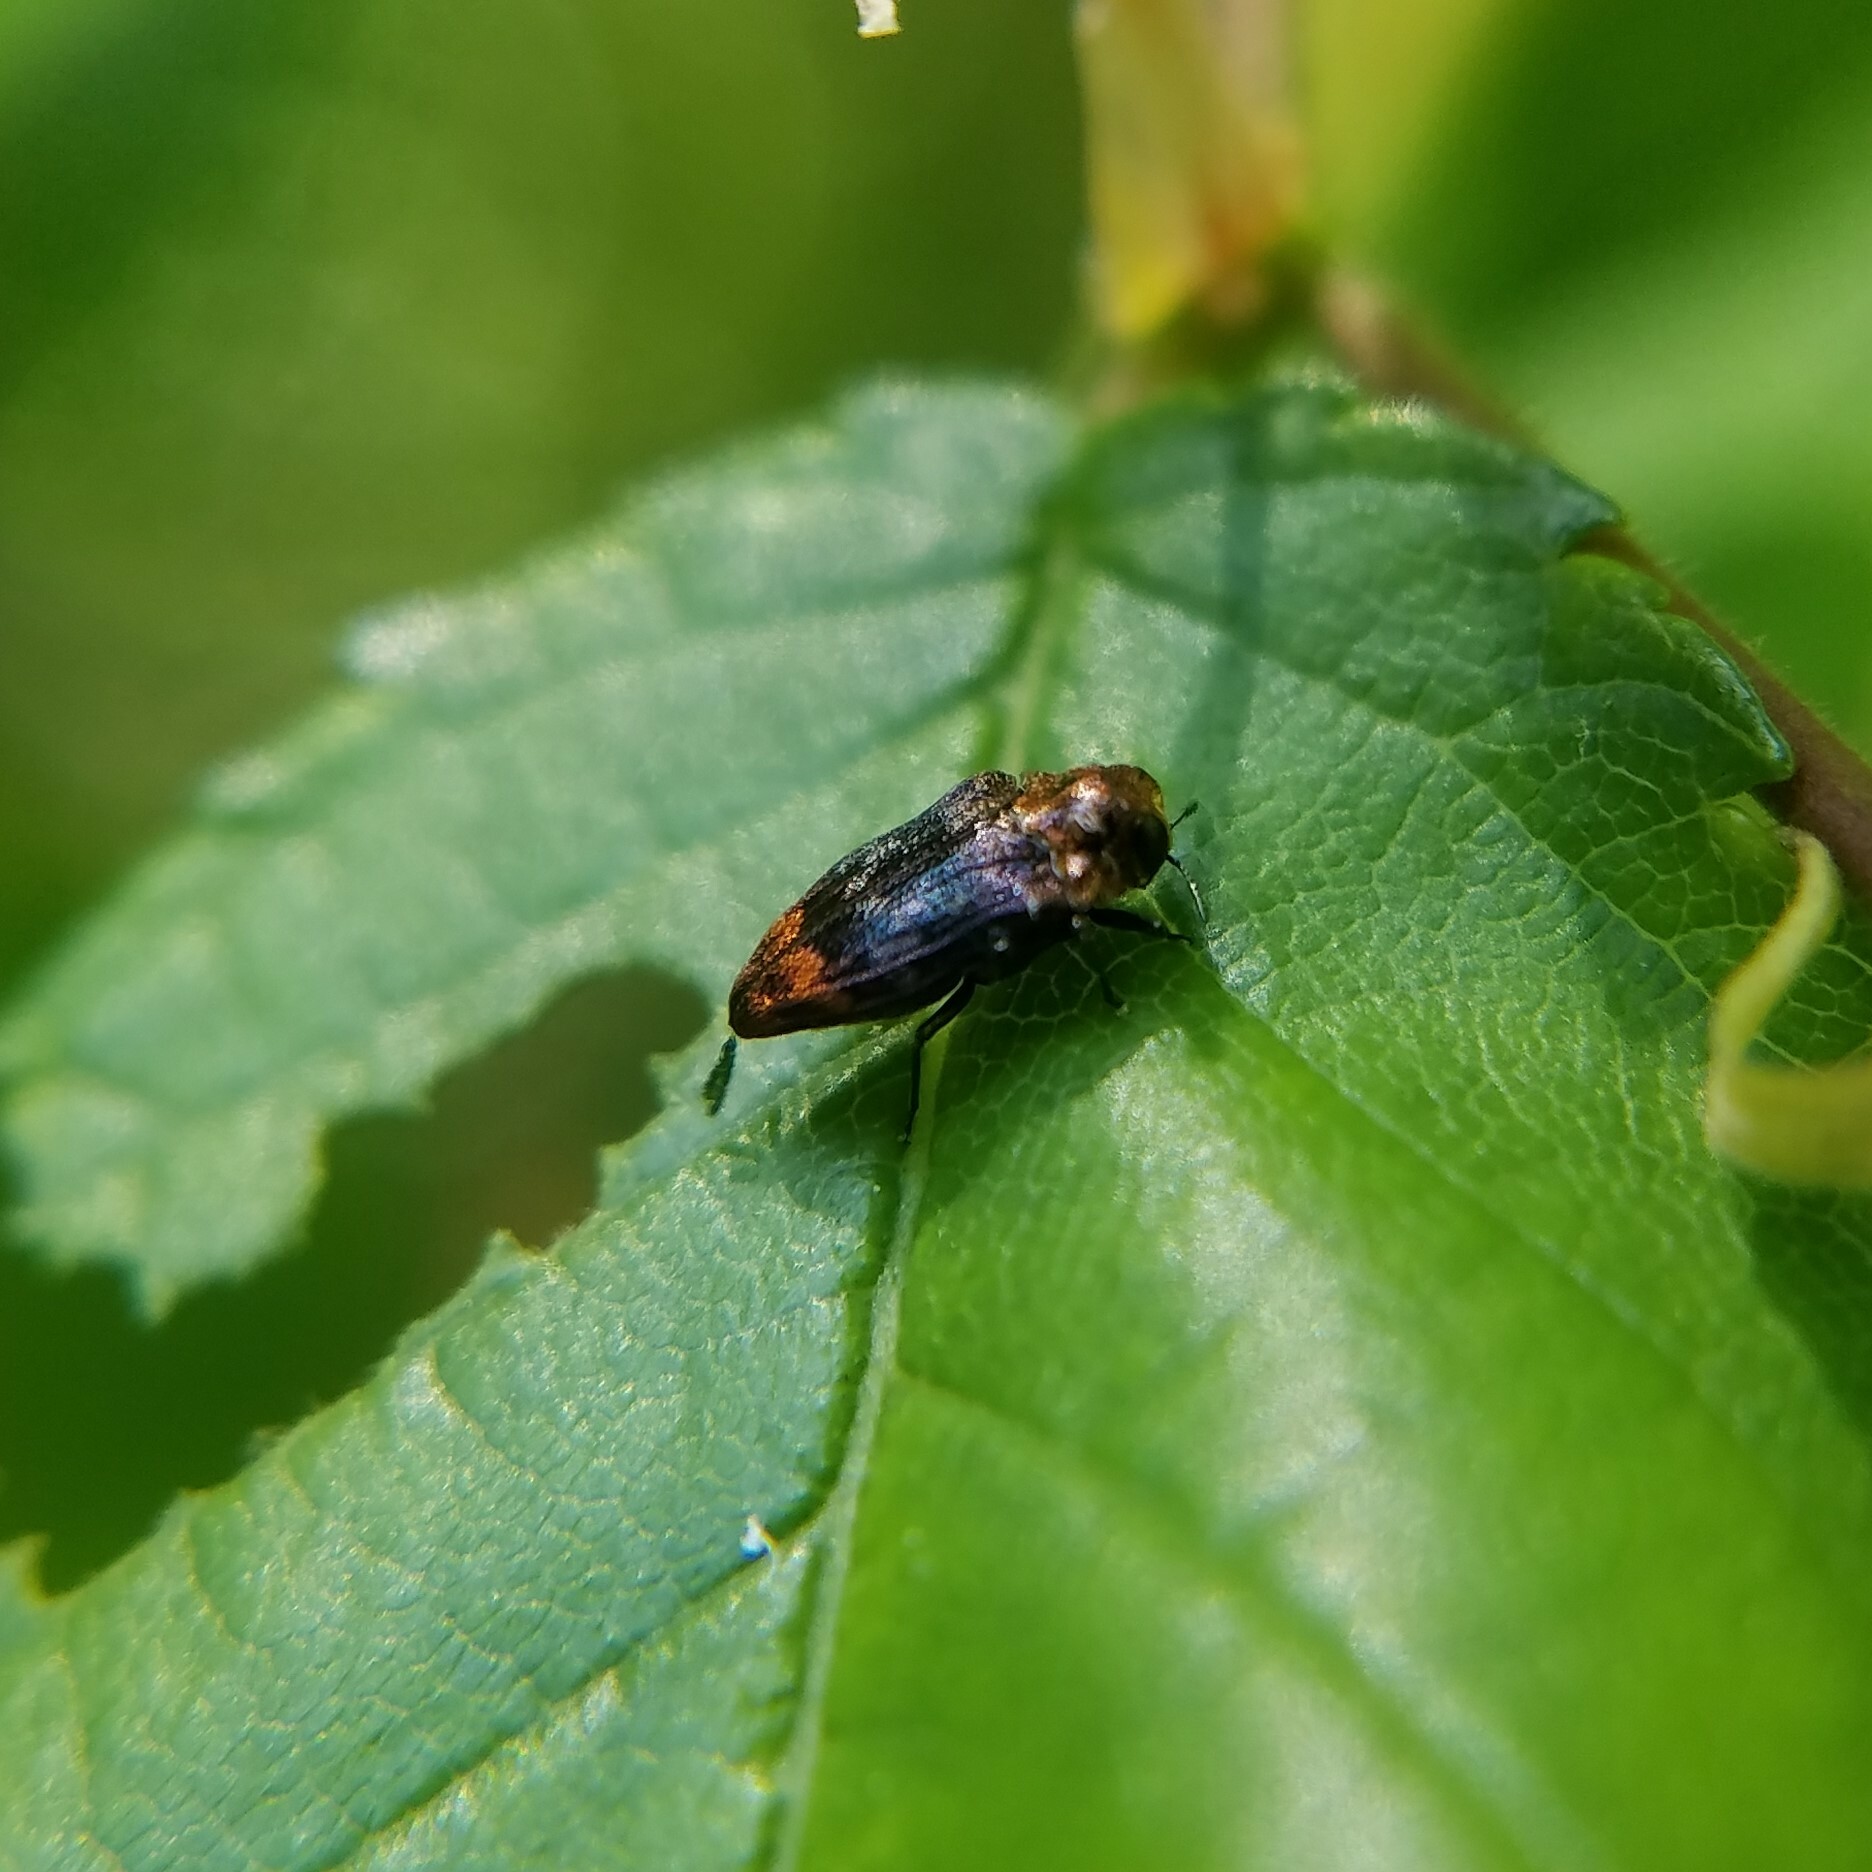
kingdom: Animalia
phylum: Arthropoda
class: Insecta
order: Coleoptera
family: Buprestidae
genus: Brachys
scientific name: Brachys aerosus
